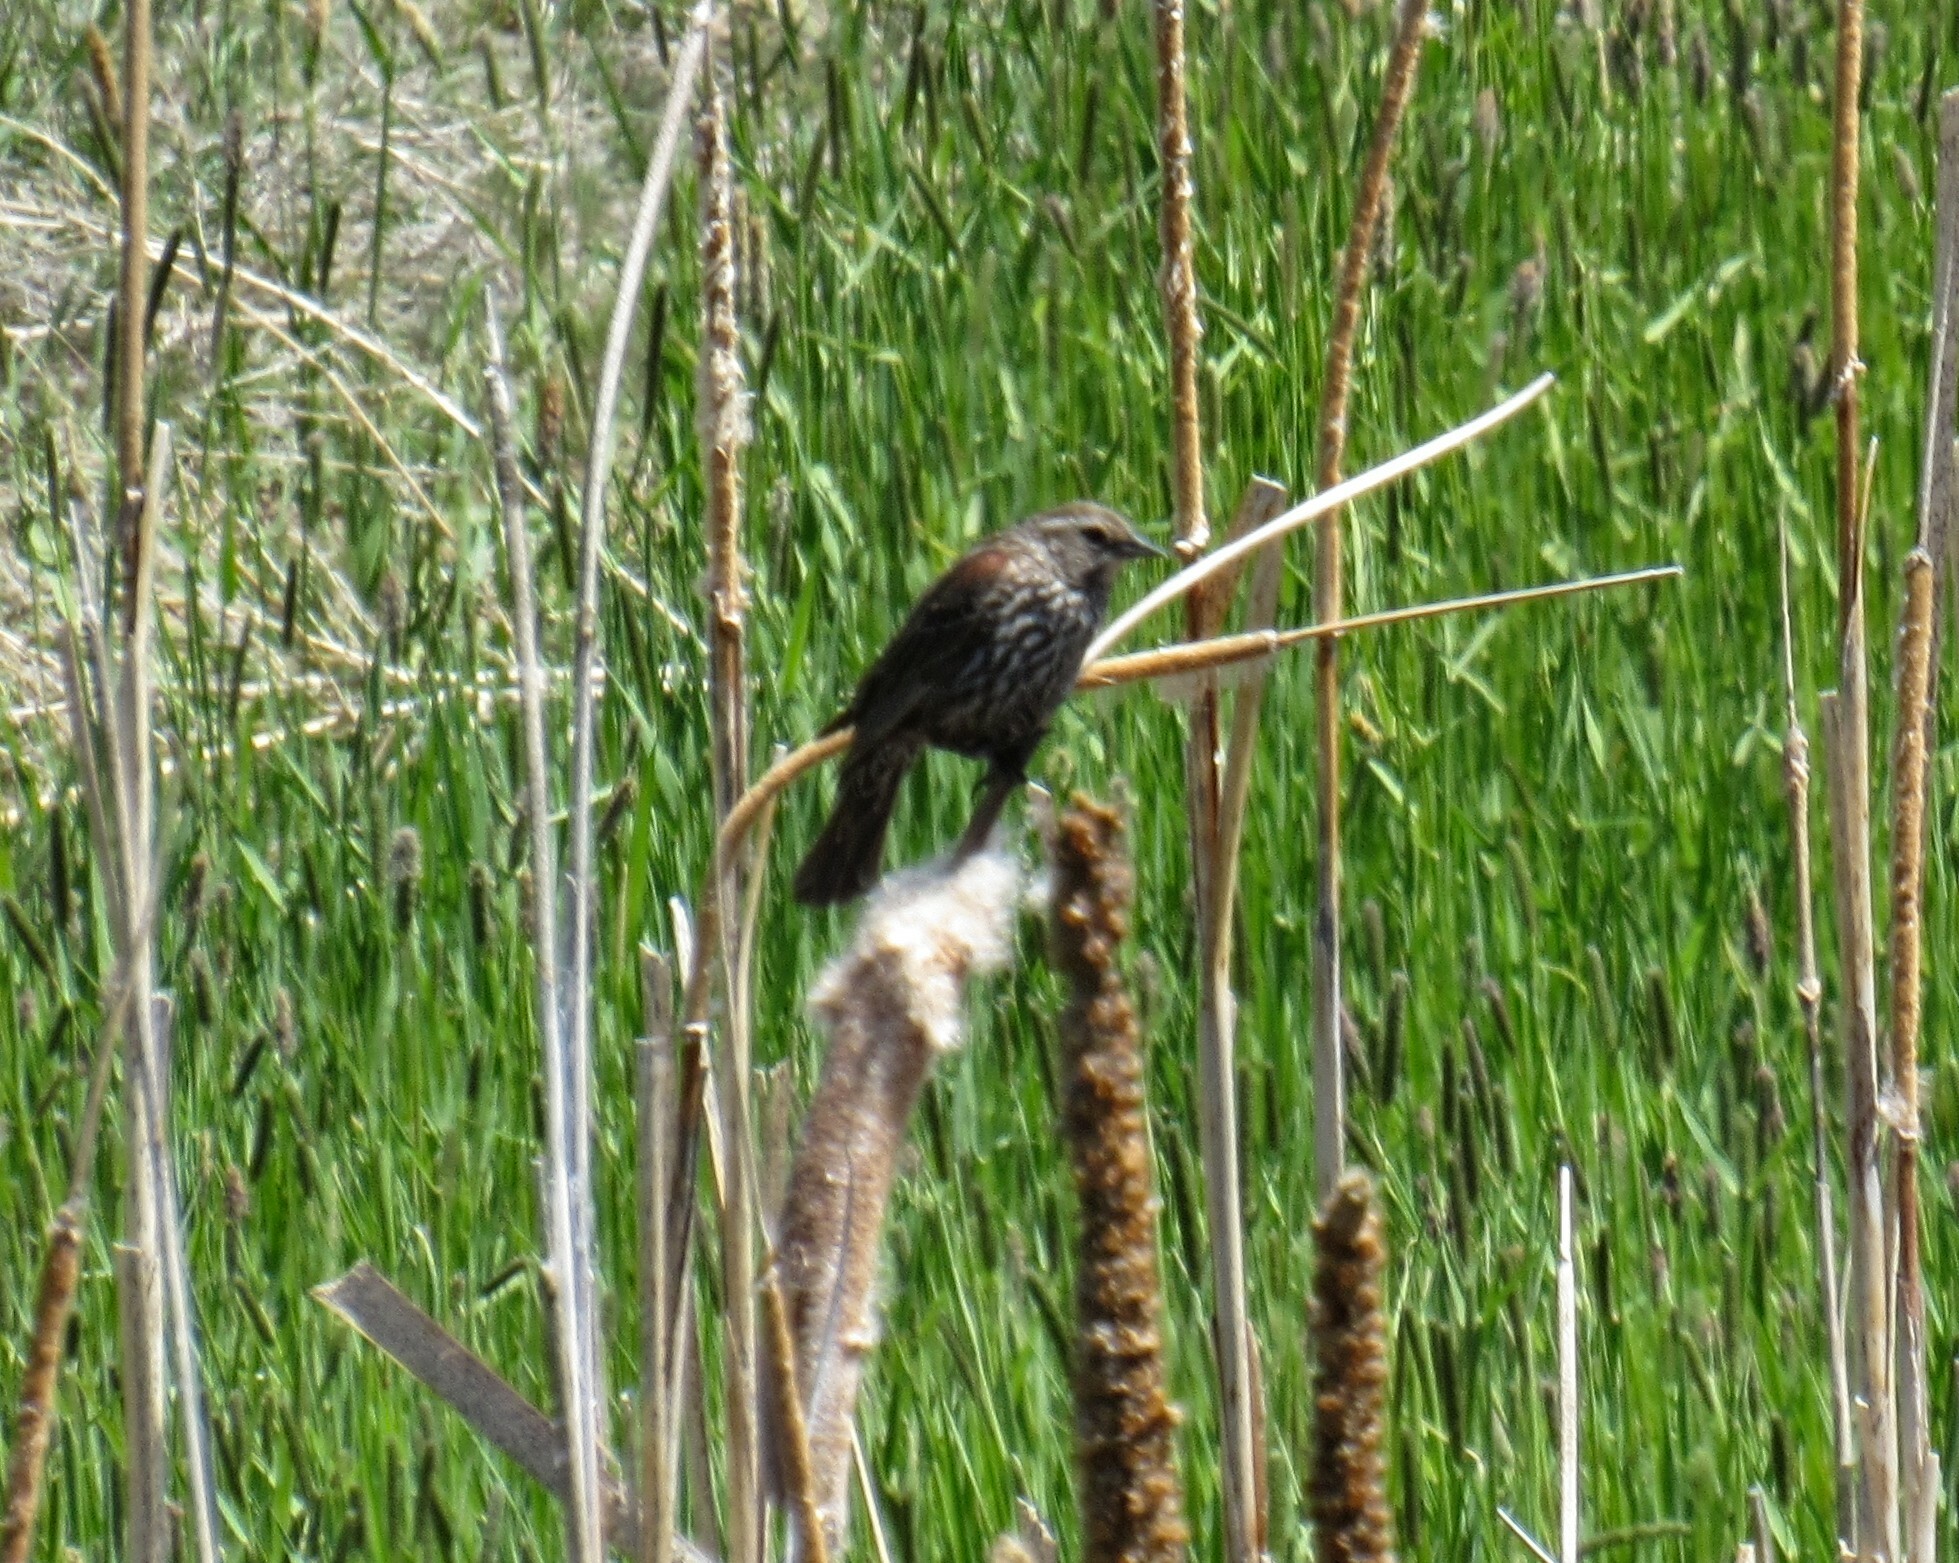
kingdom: Animalia
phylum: Chordata
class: Aves
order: Passeriformes
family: Icteridae
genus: Agelaius
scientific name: Agelaius phoeniceus
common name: Red-winged blackbird
